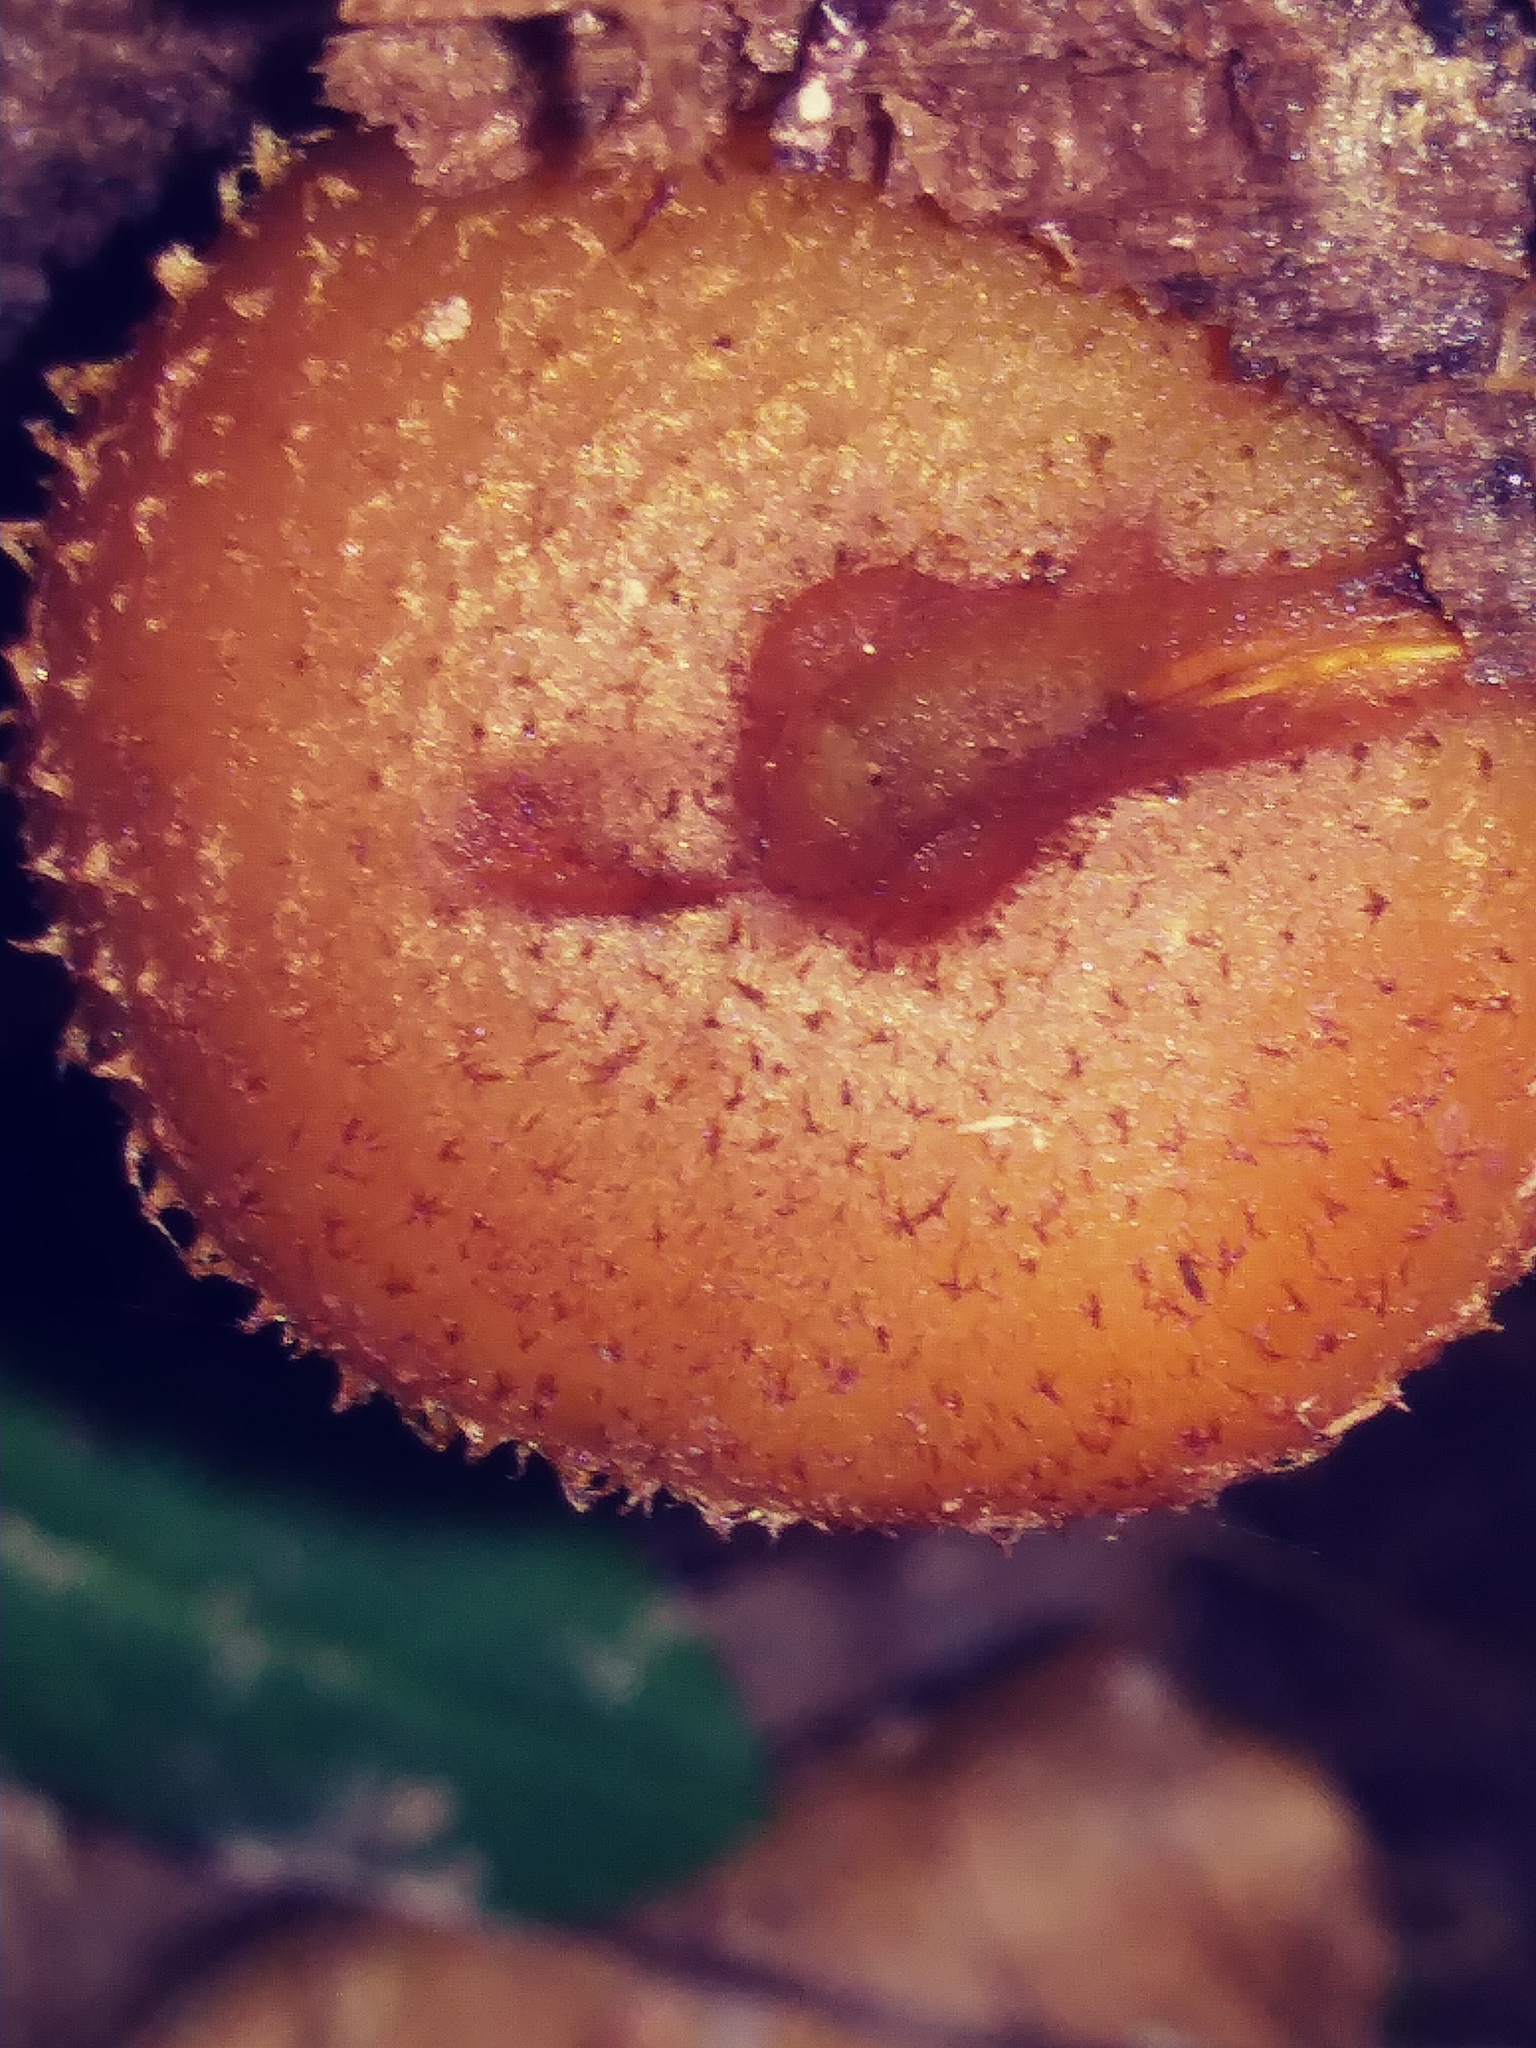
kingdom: Fungi
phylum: Basidiomycota
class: Agaricomycetes
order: Agaricales
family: Physalacriaceae
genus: Armillaria
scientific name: Armillaria gallica
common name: Bulbous honey fungus
